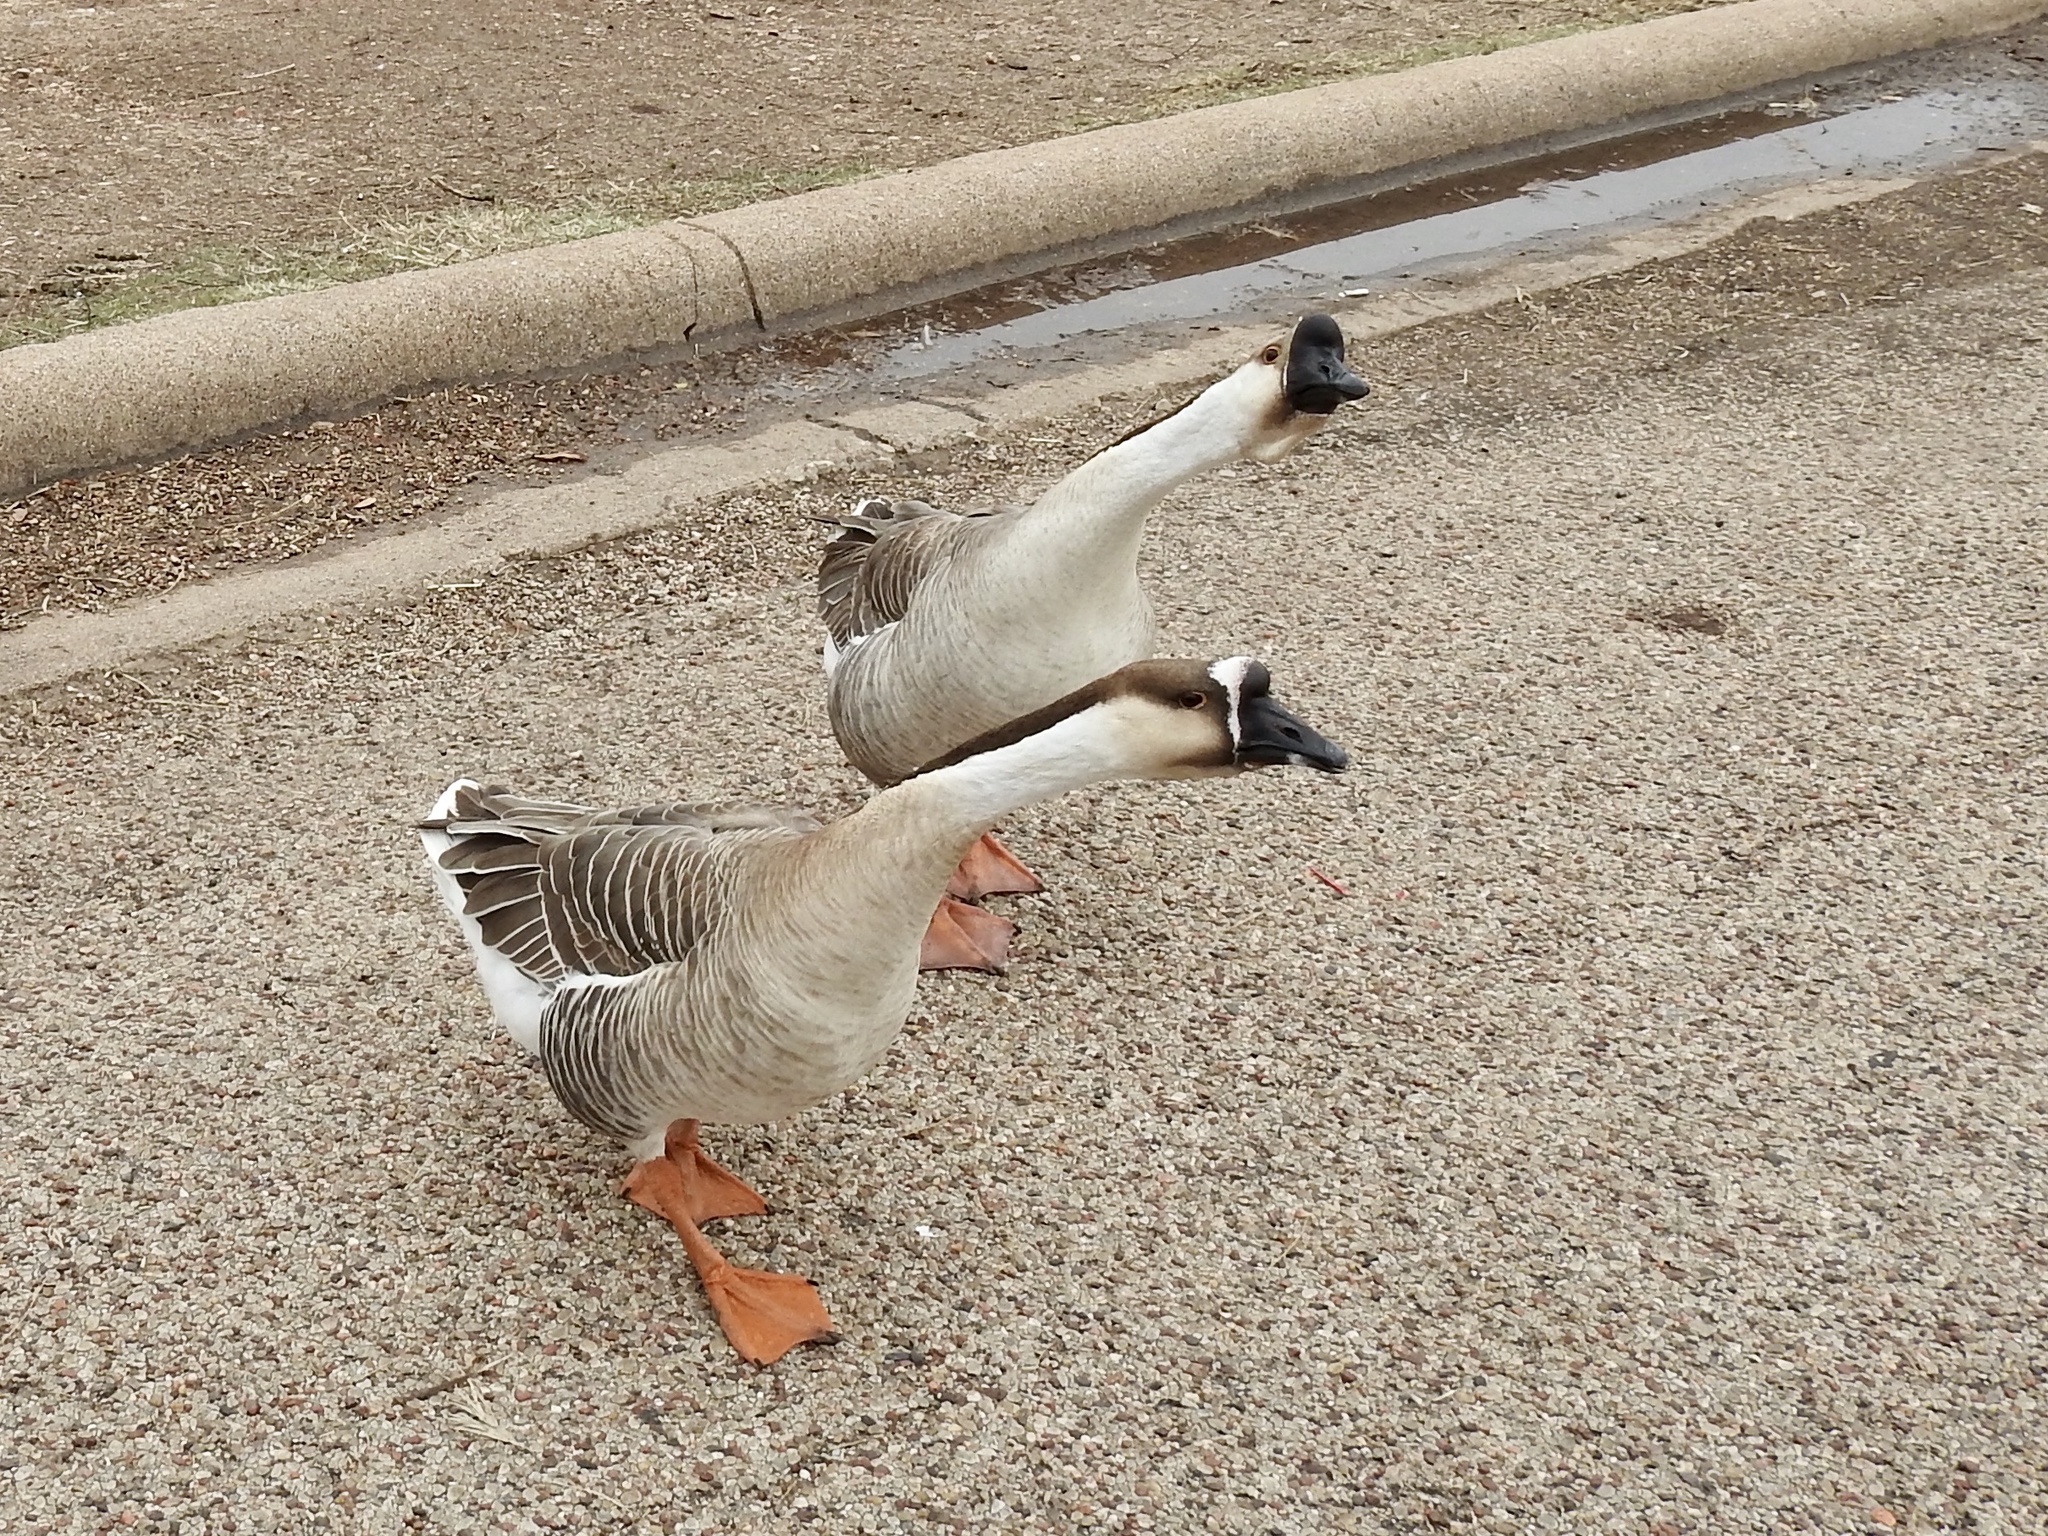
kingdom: Animalia
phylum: Chordata
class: Aves
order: Anseriformes
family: Anatidae
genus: Anser
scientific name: Anser cygnoides
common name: Swan goose
